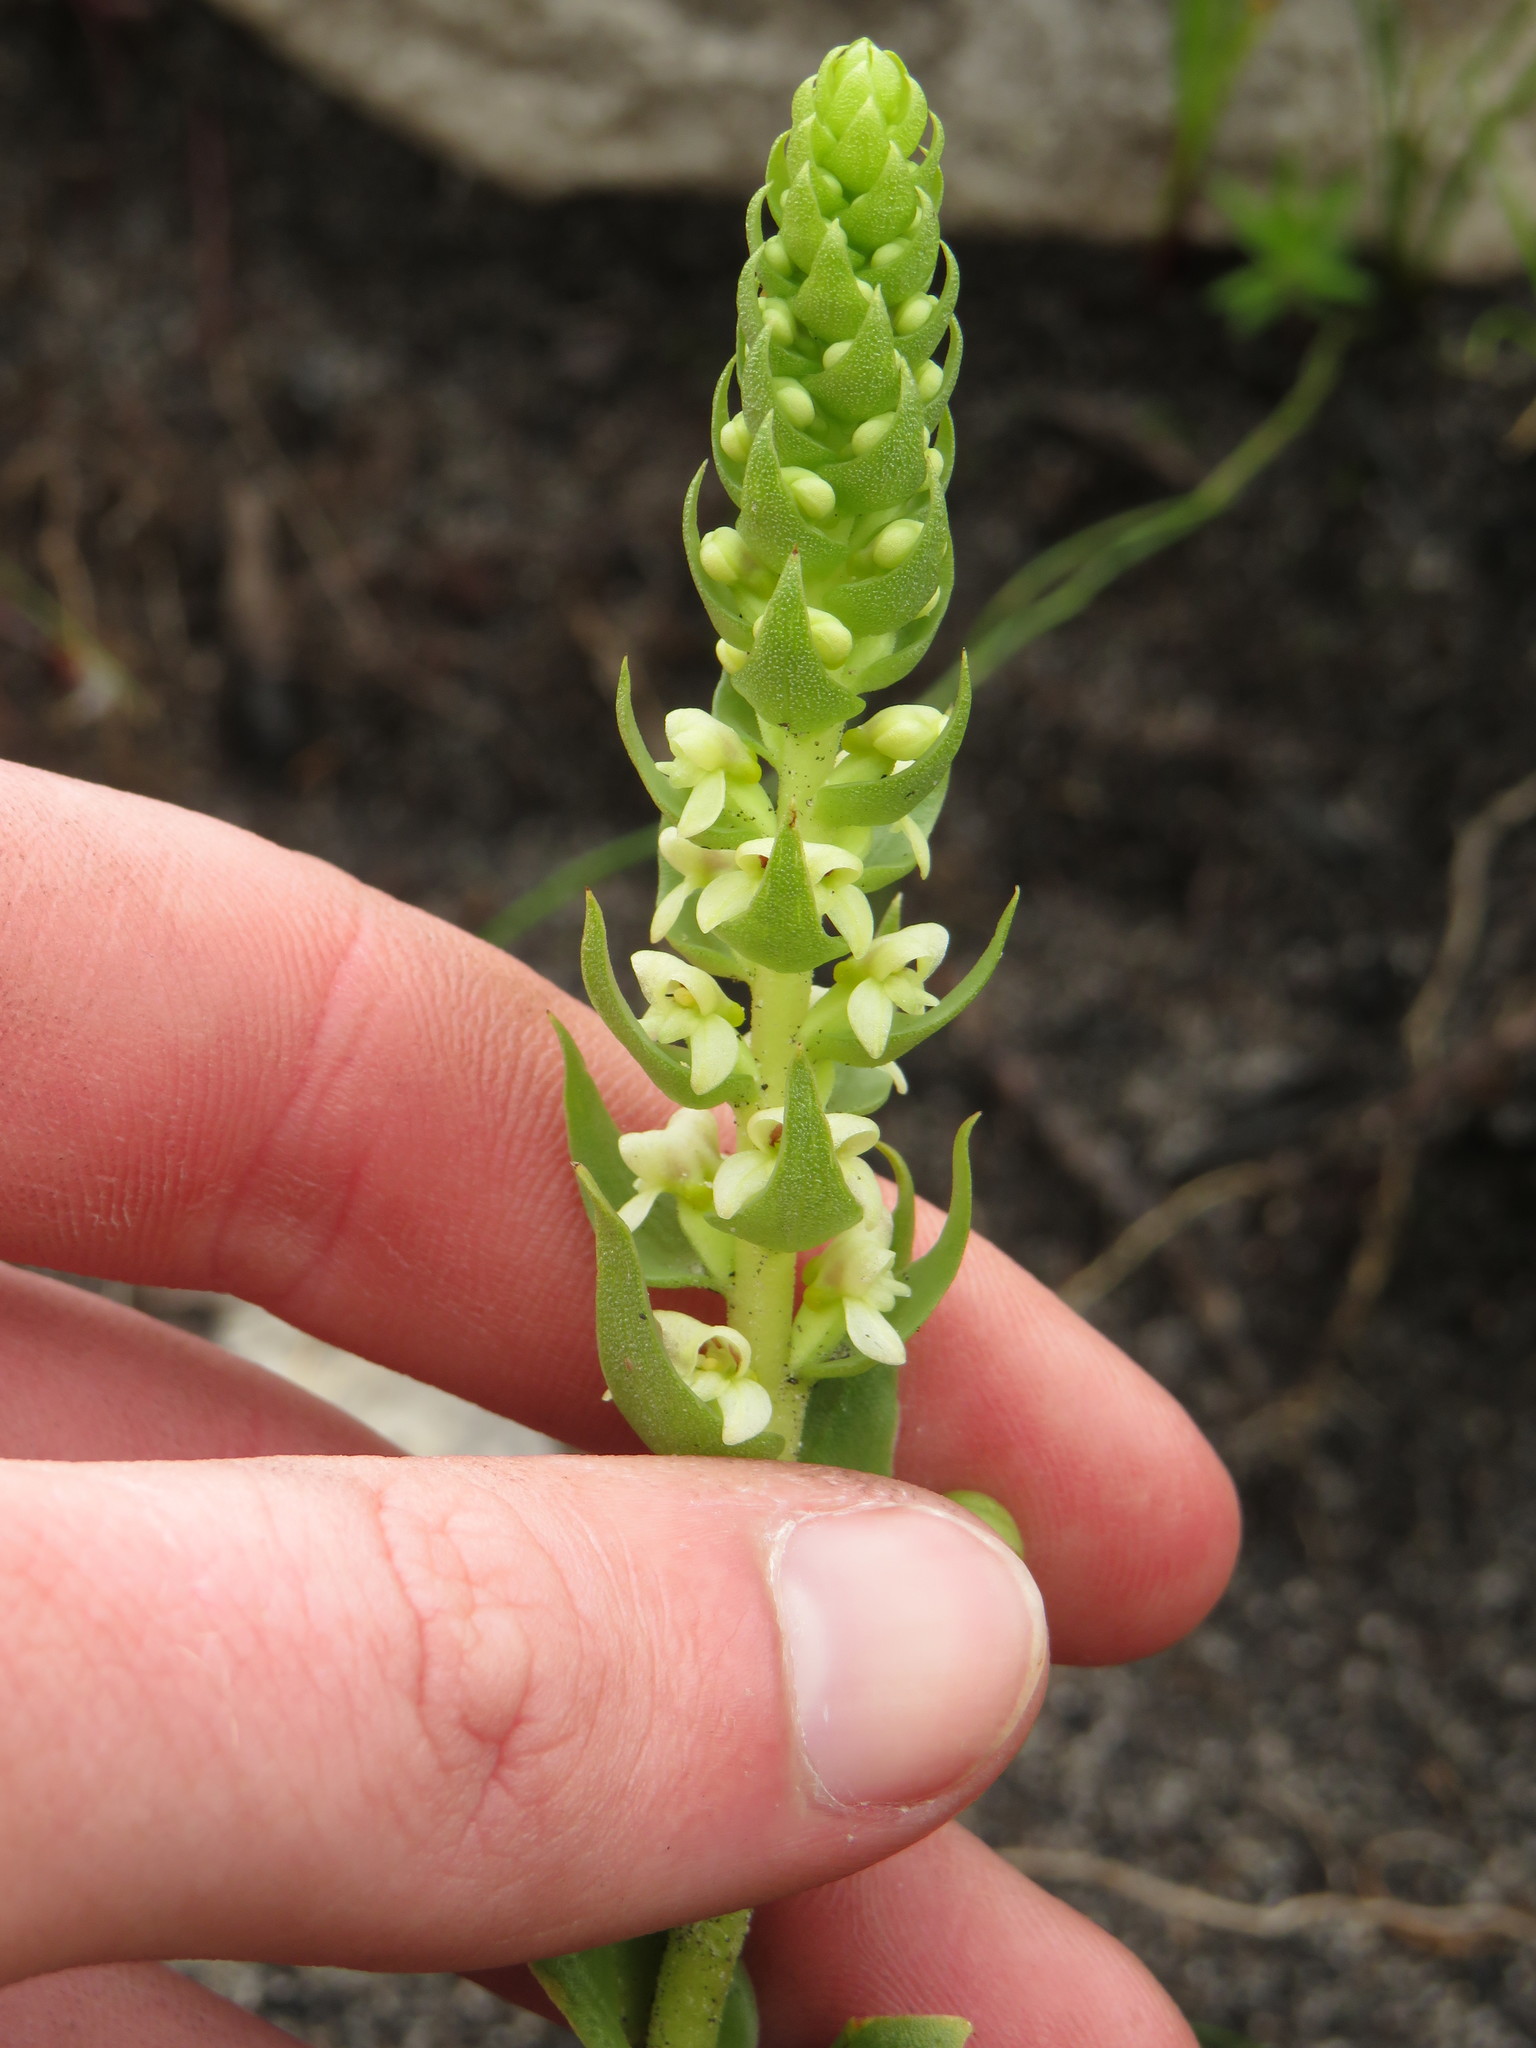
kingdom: Plantae
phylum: Tracheophyta
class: Liliopsida
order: Asparagales
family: Orchidaceae
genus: Satyrium
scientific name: Satyrium bicallosum
